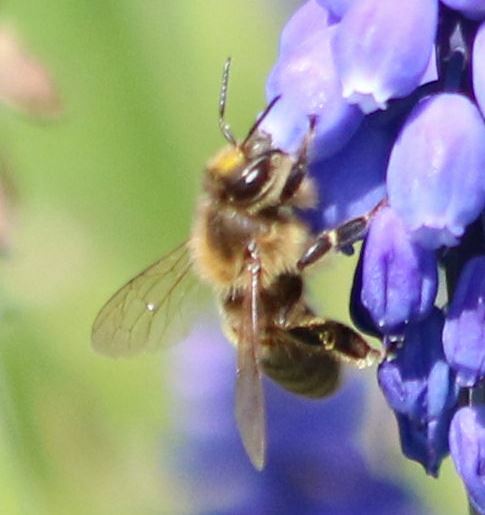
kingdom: Animalia
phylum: Arthropoda
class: Insecta
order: Hymenoptera
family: Apidae
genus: Apis
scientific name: Apis mellifera
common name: Honey bee
